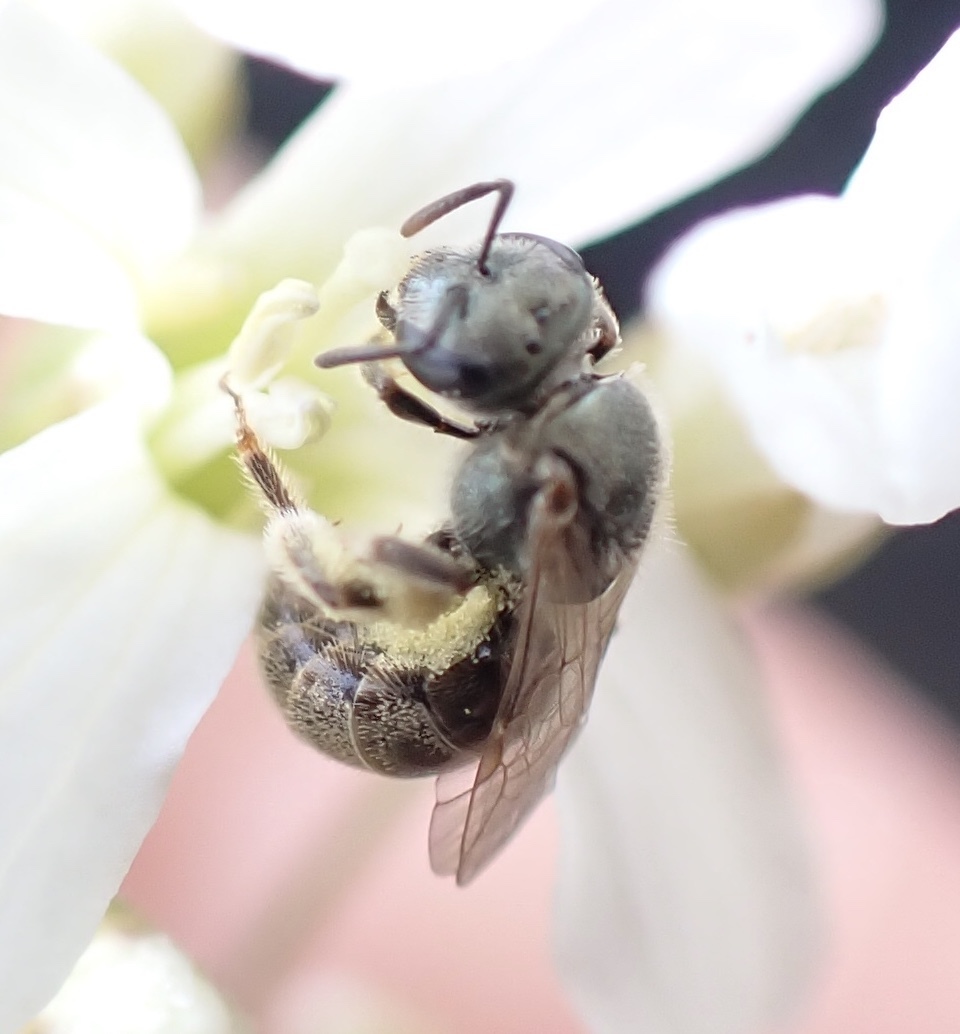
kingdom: Animalia
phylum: Arthropoda
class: Insecta
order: Hymenoptera
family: Halictidae
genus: Dialictus
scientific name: Dialictus
